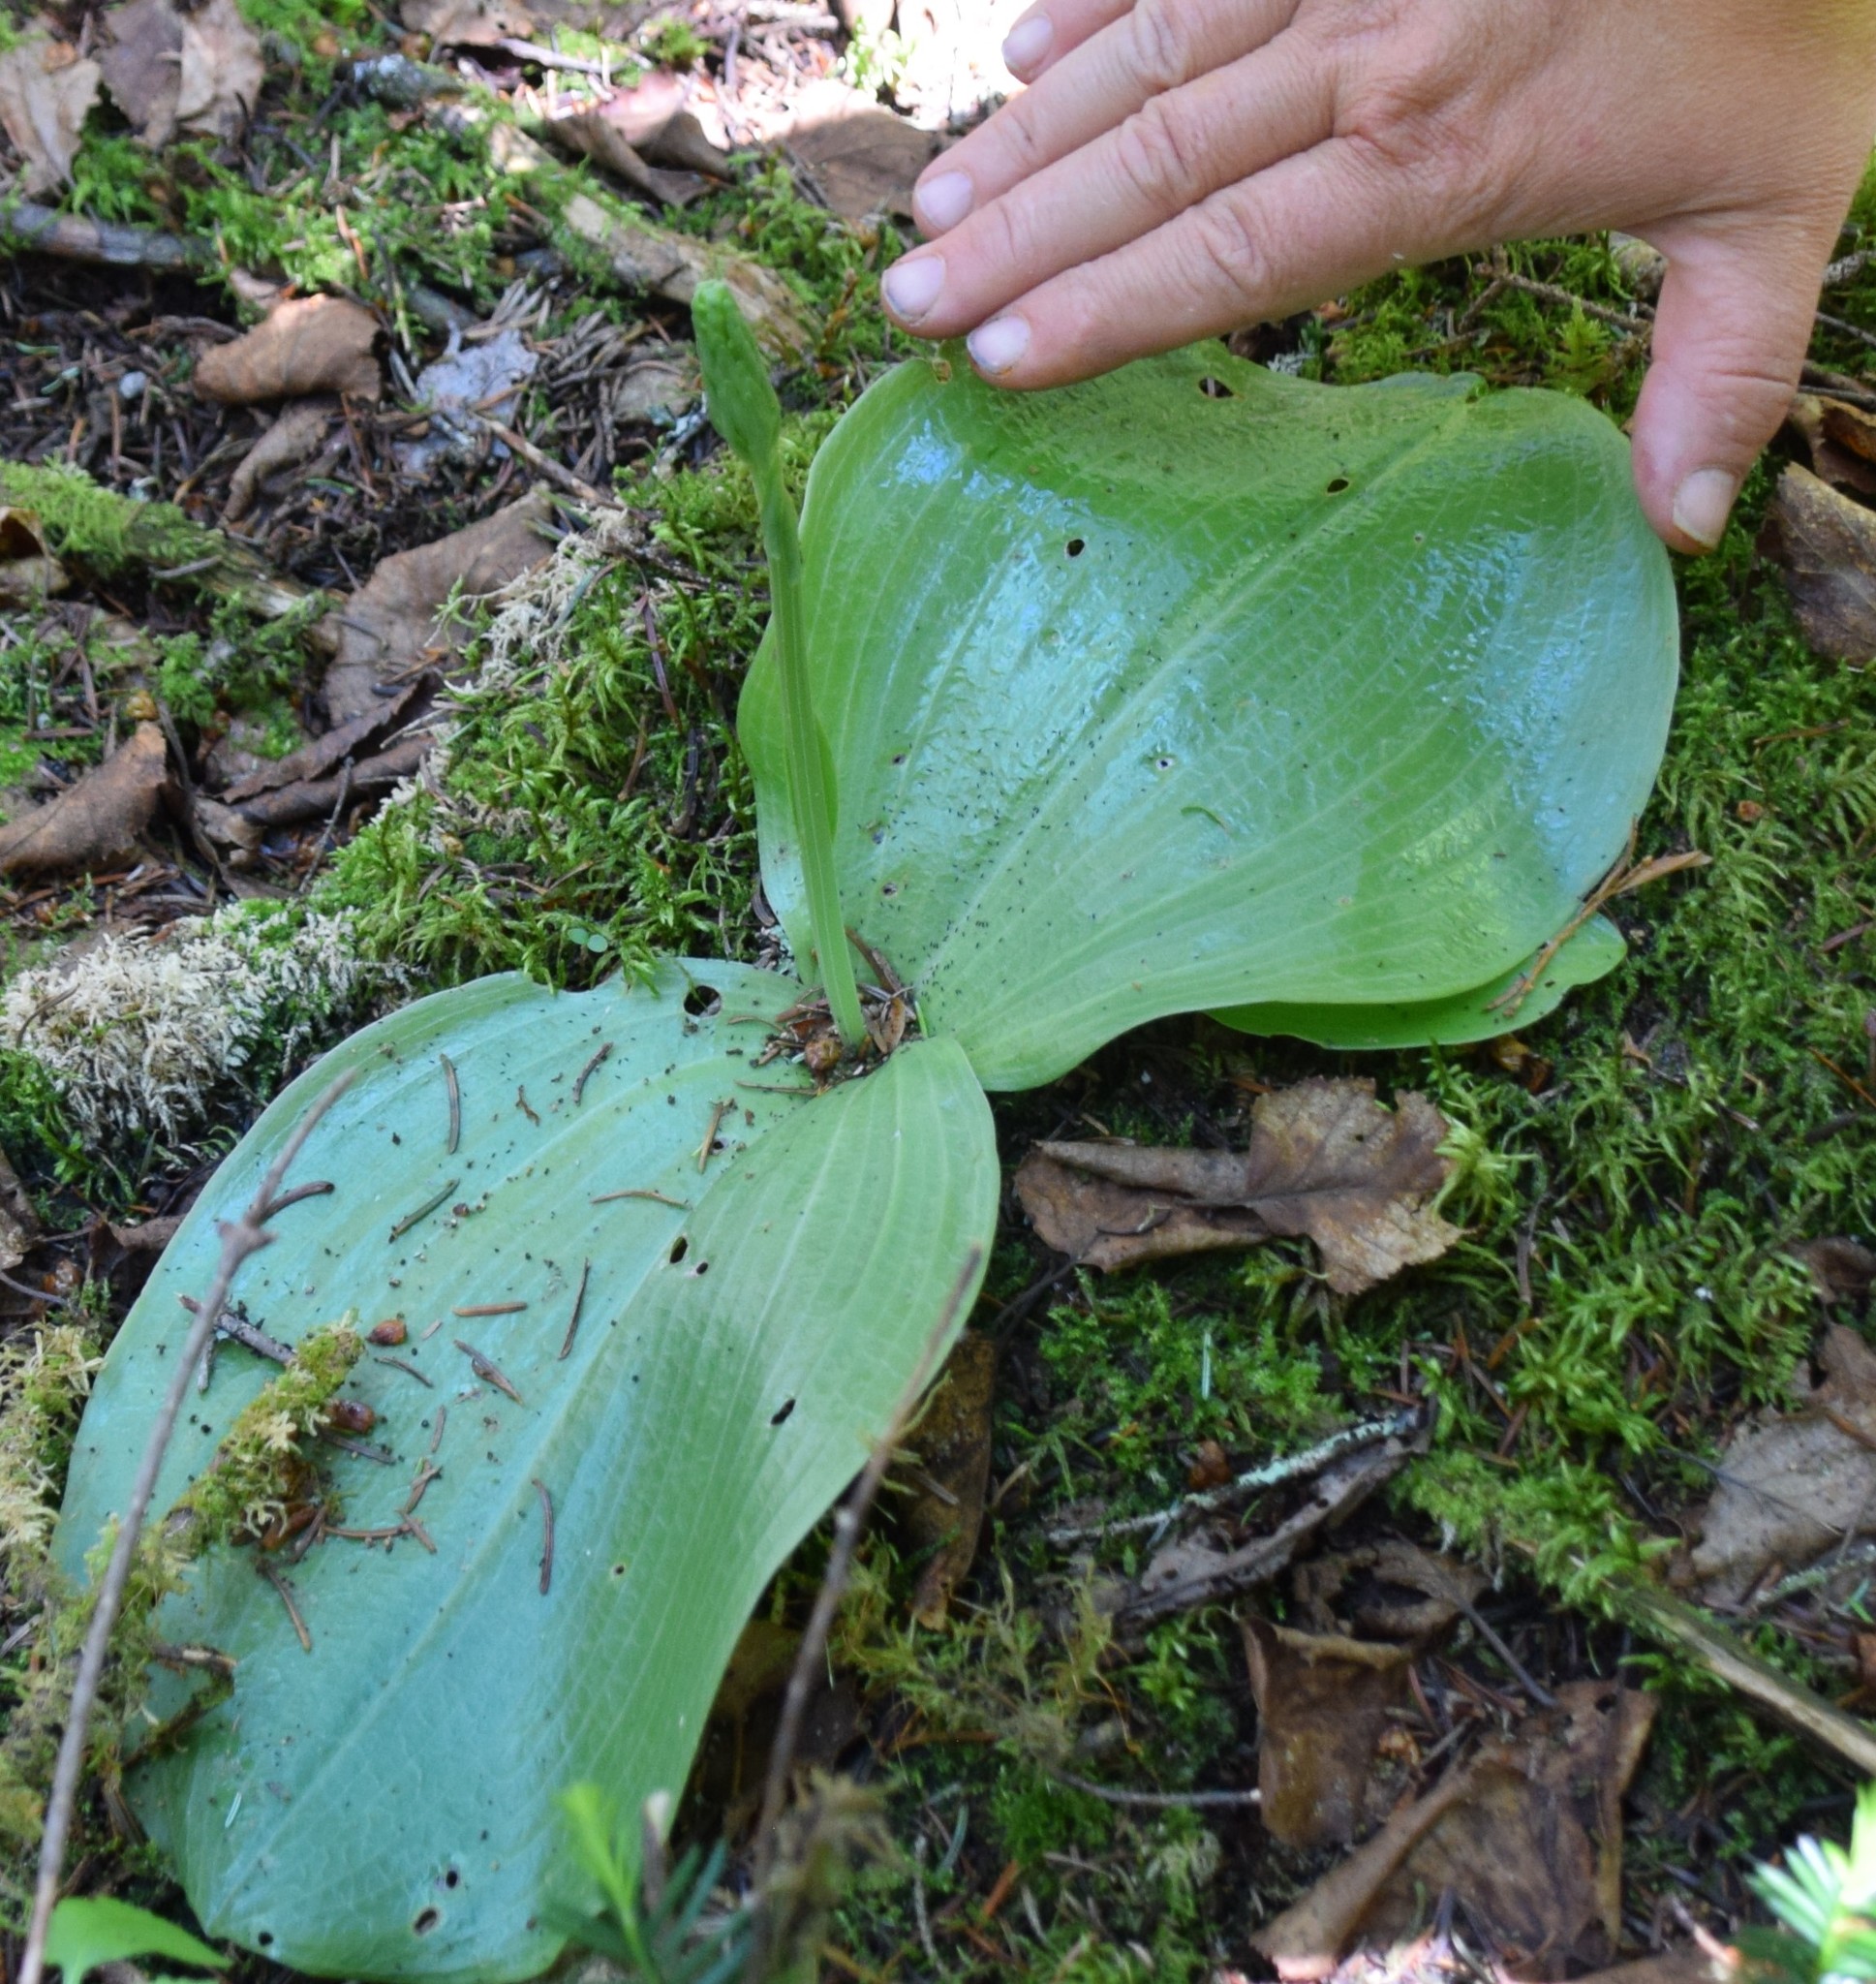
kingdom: Plantae
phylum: Tracheophyta
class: Liliopsida
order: Asparagales
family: Orchidaceae
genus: Platanthera
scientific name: Platanthera orbiculata
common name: Large round-leaved orchid
